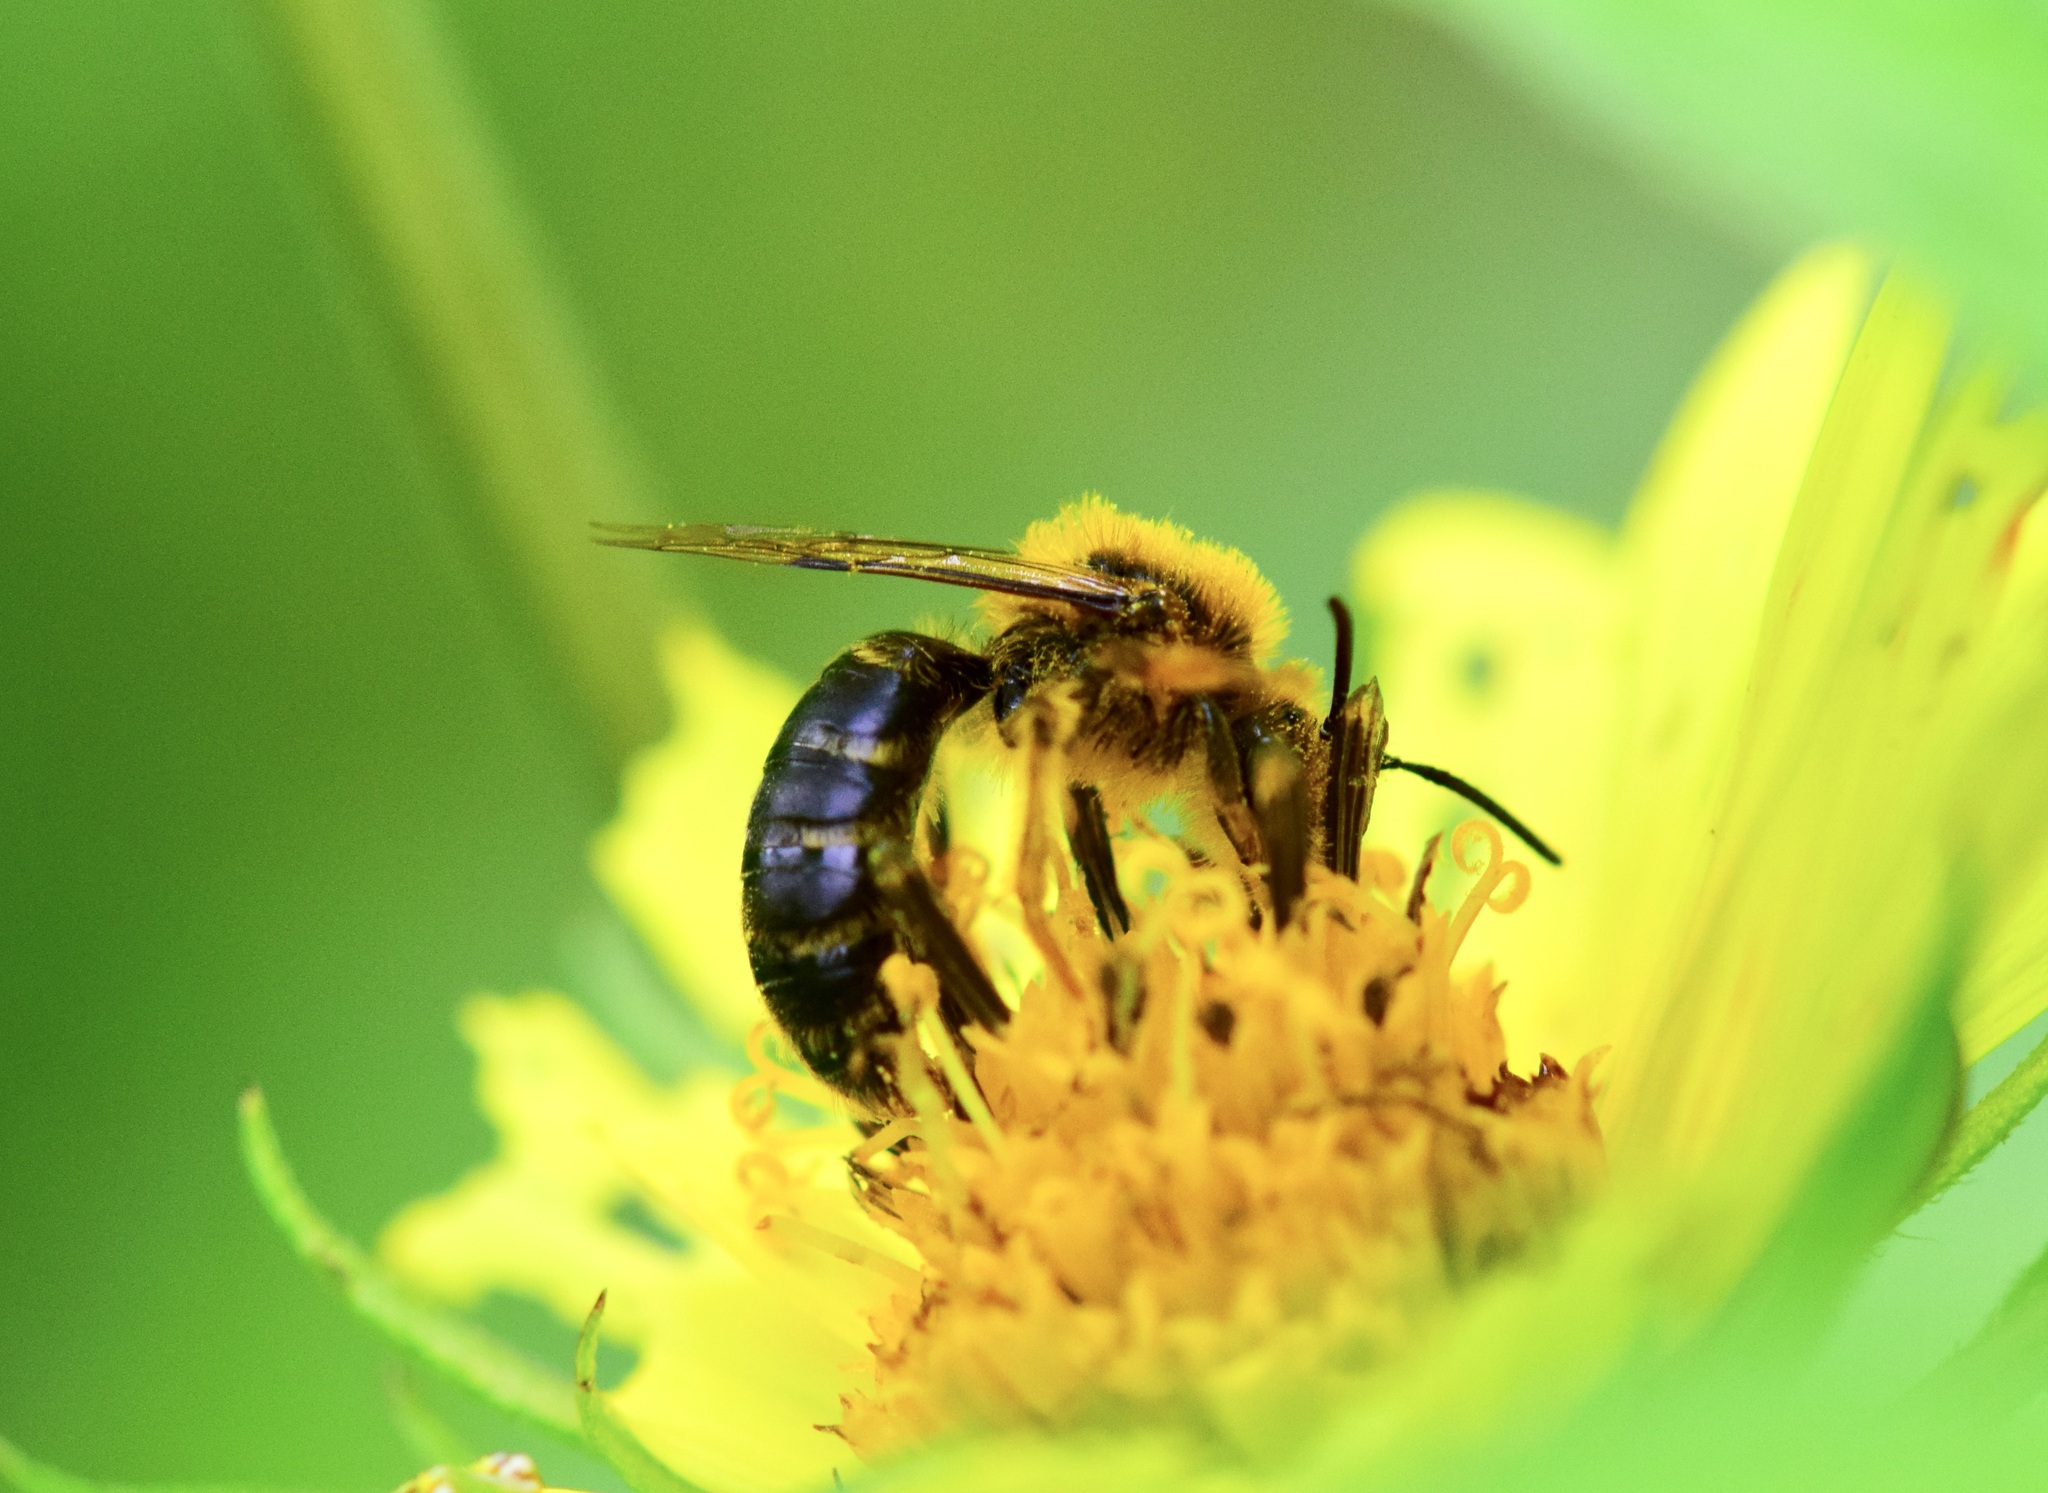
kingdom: Animalia
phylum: Arthropoda
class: Insecta
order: Hymenoptera
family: Andrenidae
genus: Andrena
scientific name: Andrena helianthi
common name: Sunflower mining bee
